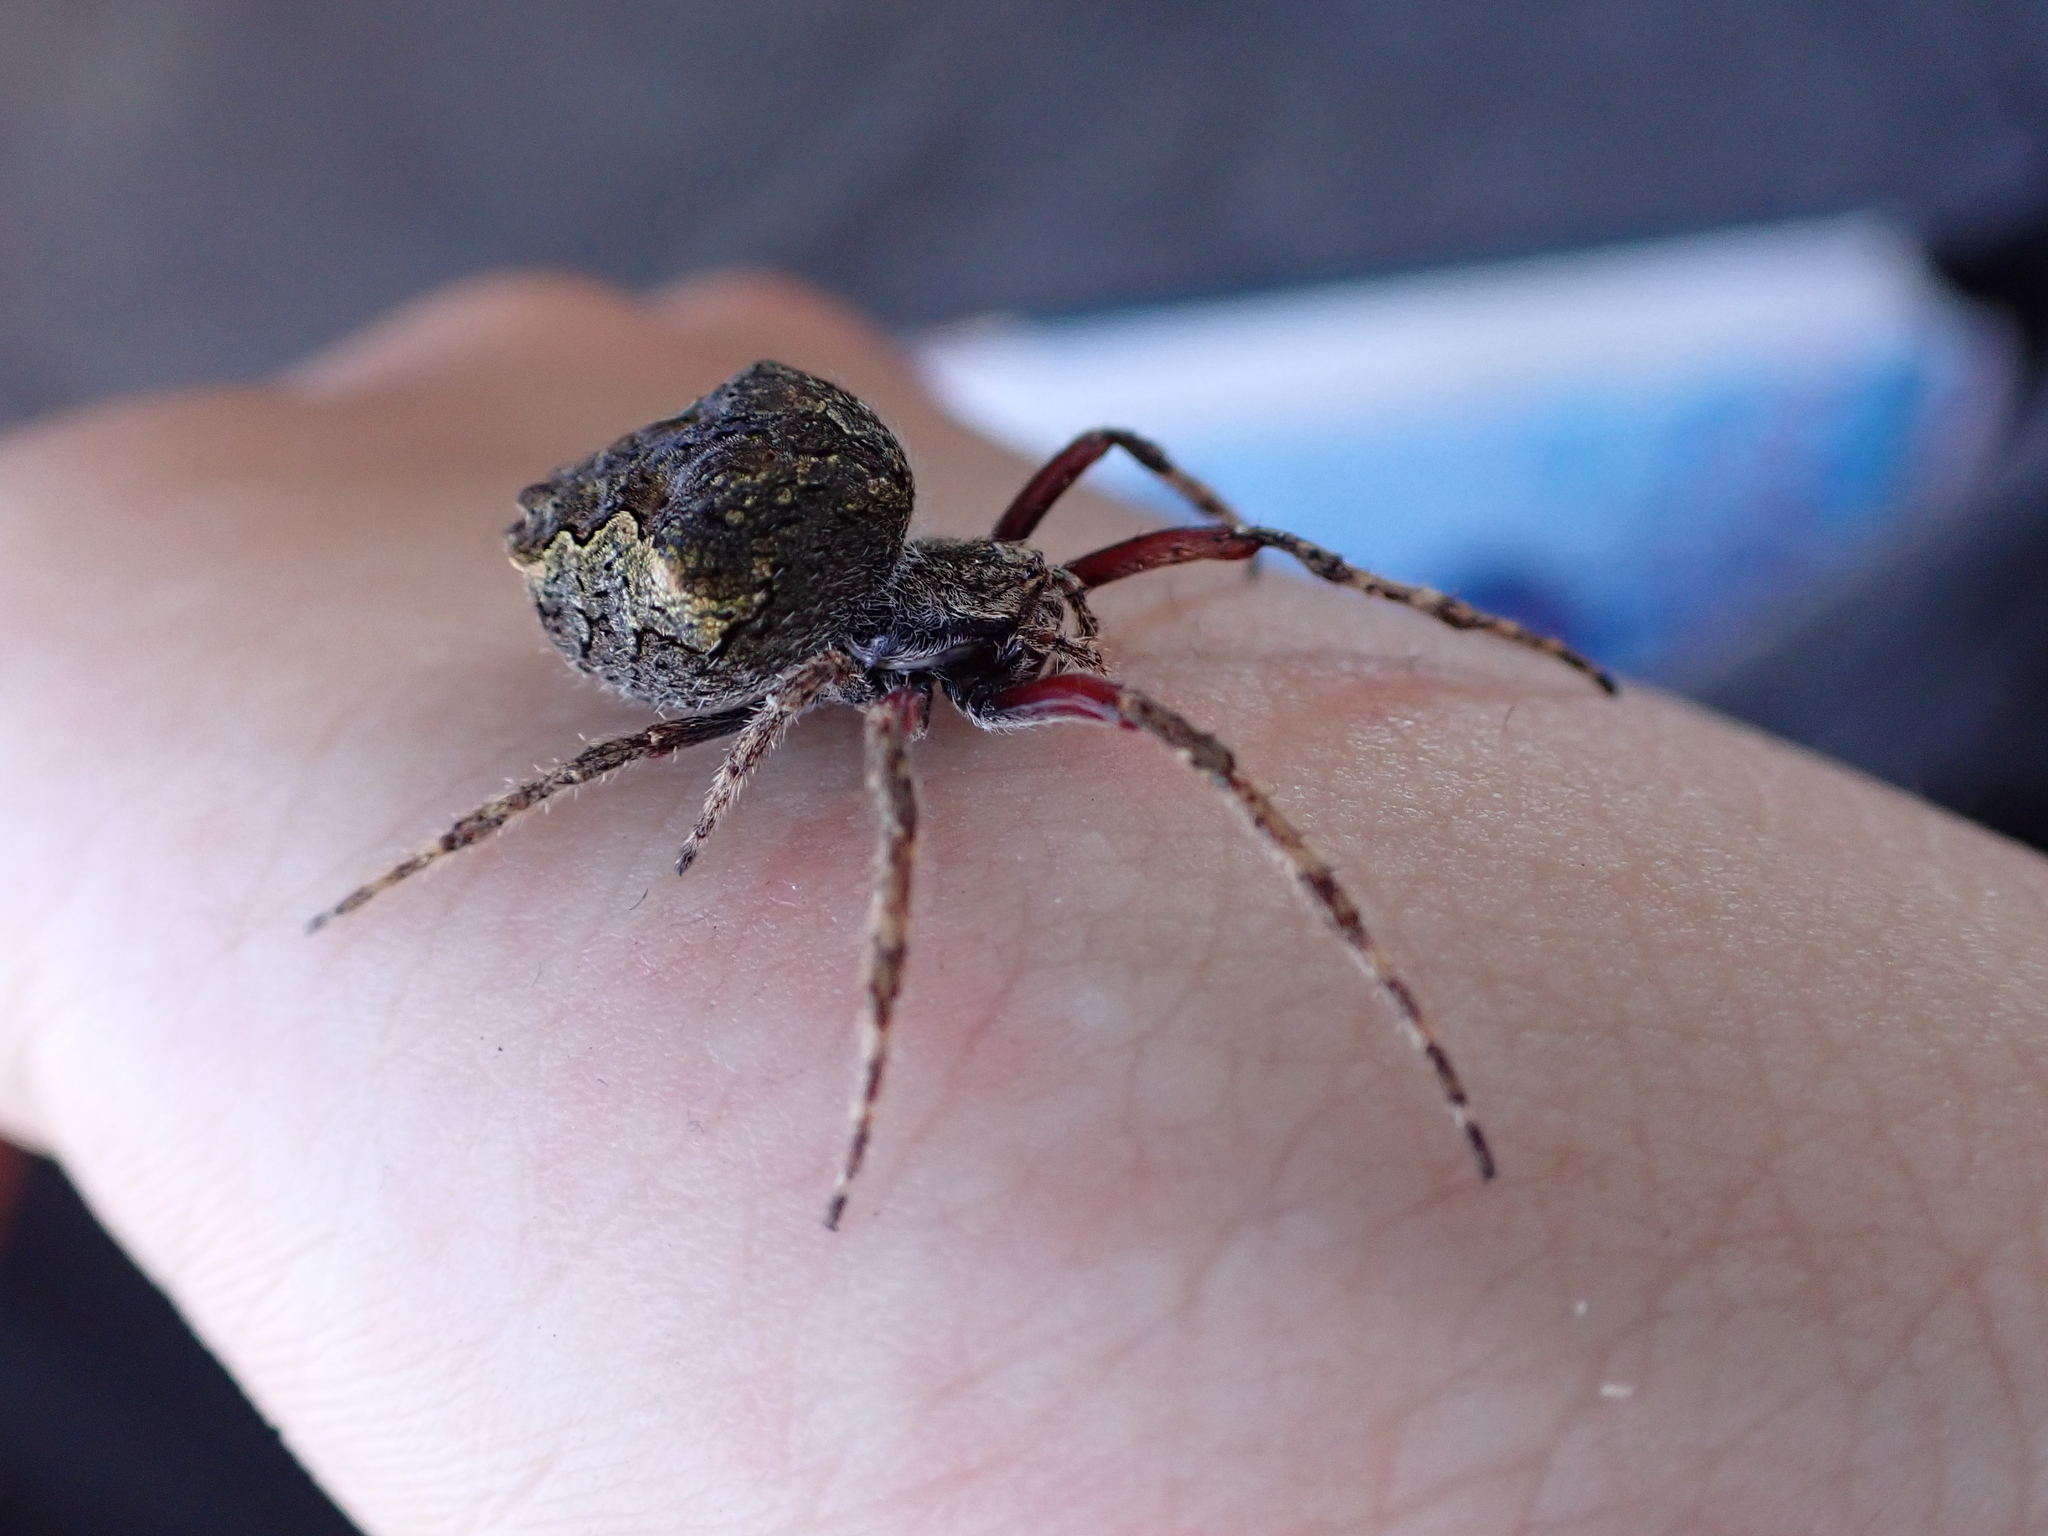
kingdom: Animalia
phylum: Arthropoda
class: Arachnida
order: Araneae
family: Araneidae
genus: Eriophora
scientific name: Eriophora pustulosa
